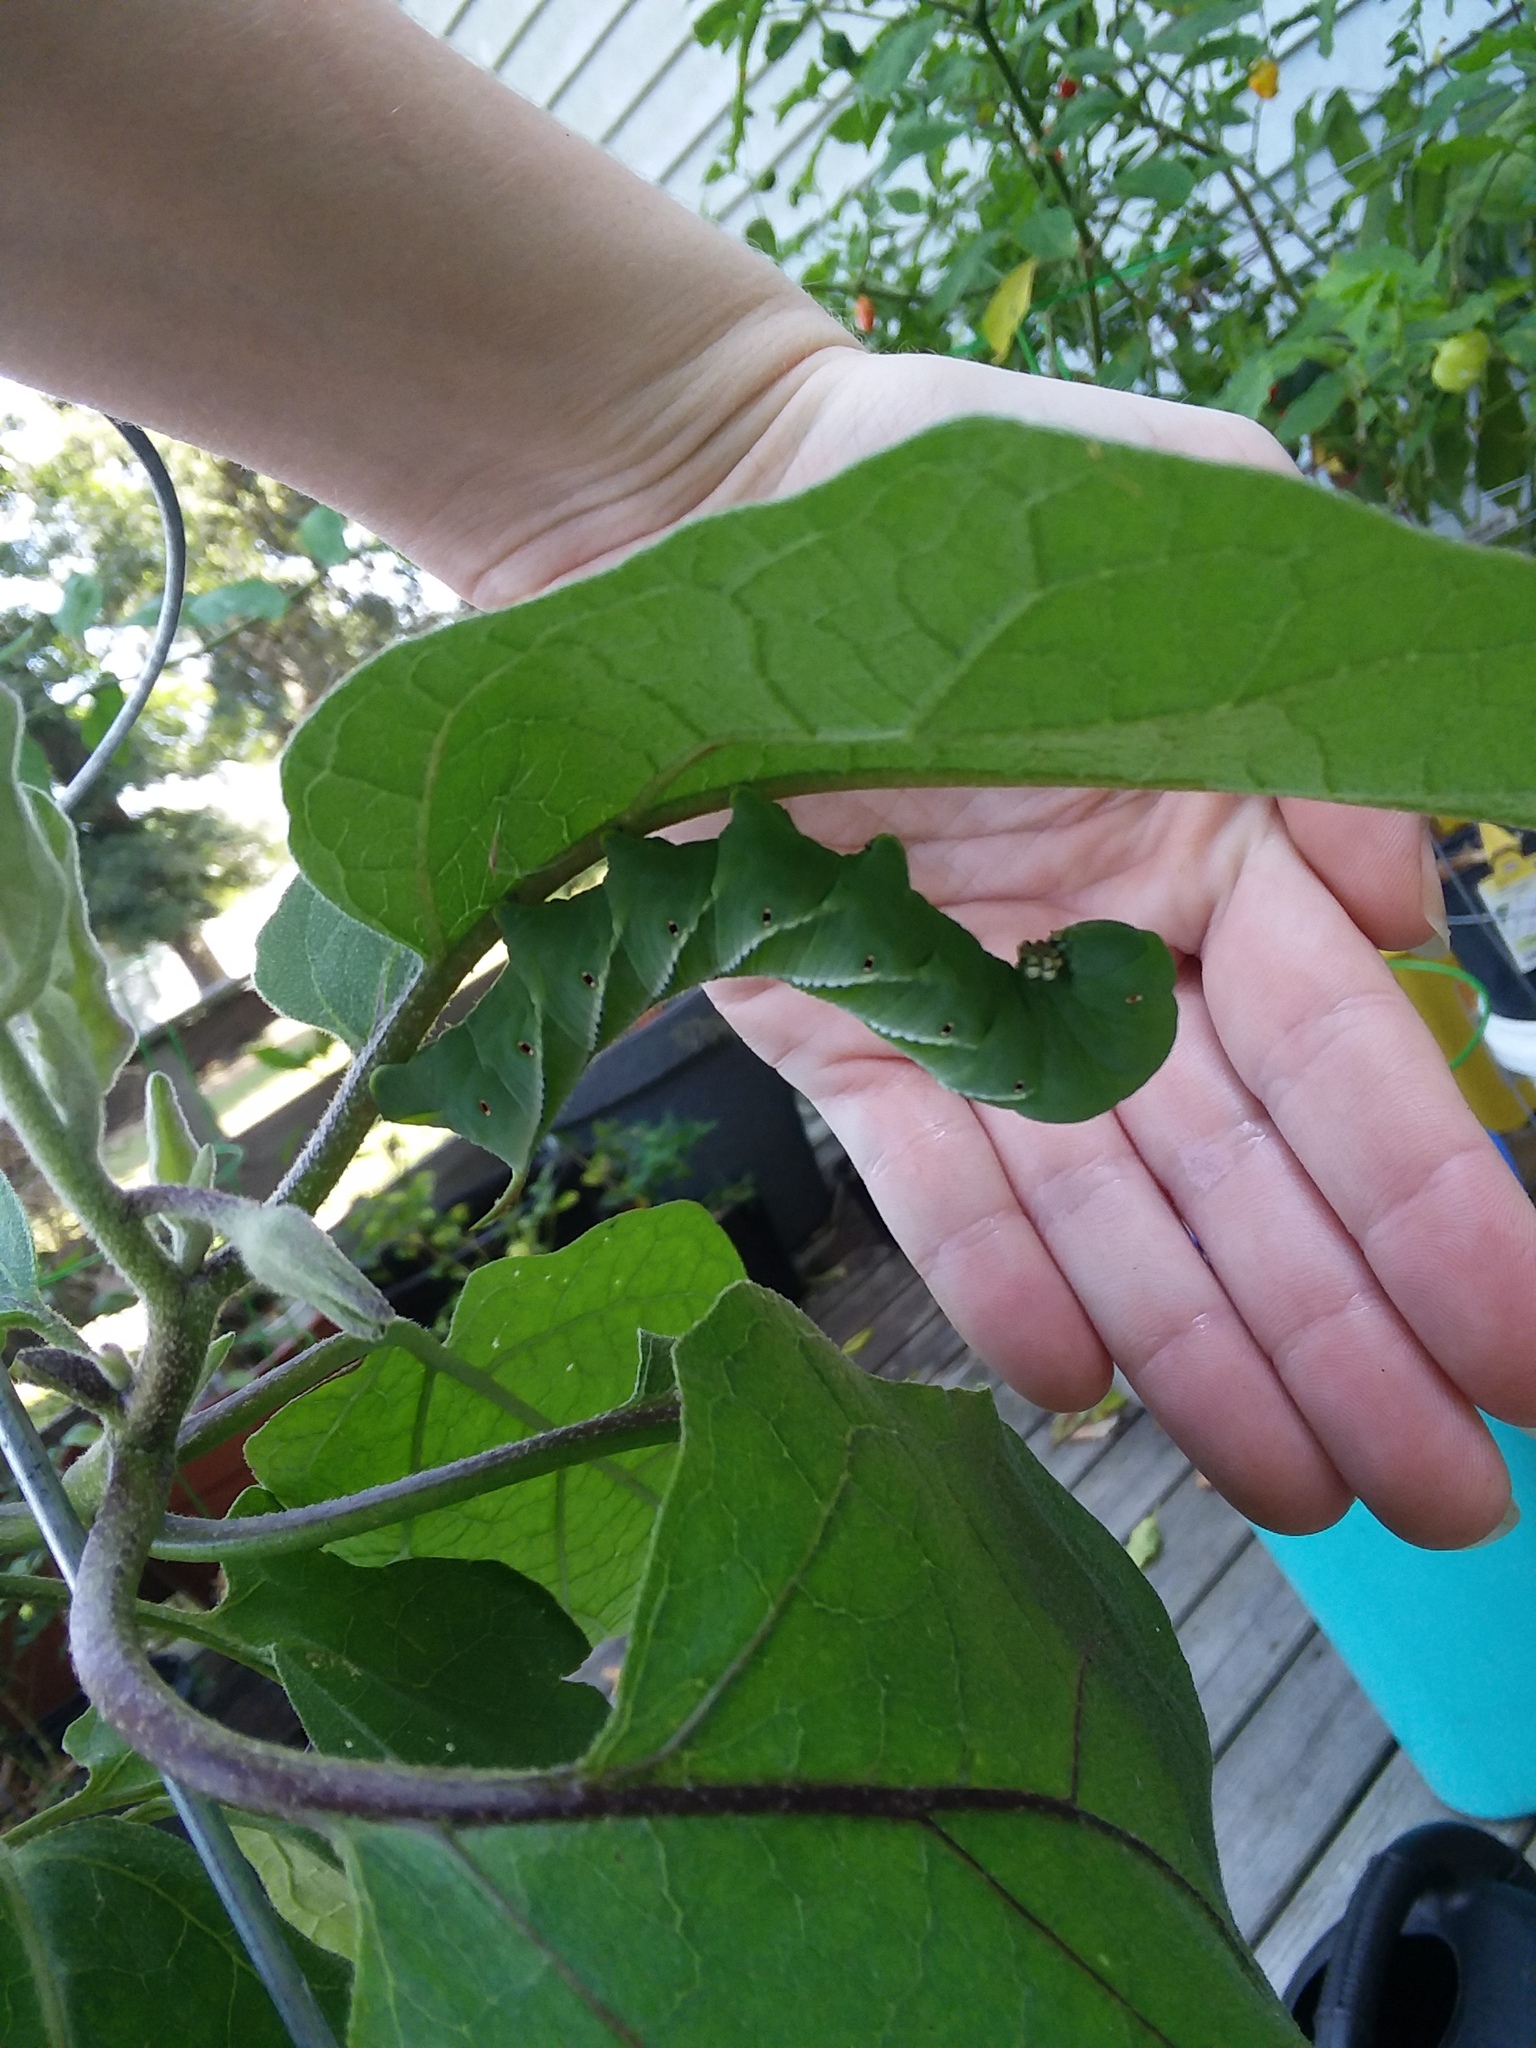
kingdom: Animalia
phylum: Arthropoda
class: Insecta
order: Lepidoptera
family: Sphingidae
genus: Manduca
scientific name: Manduca sexta
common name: Carolina sphinx
